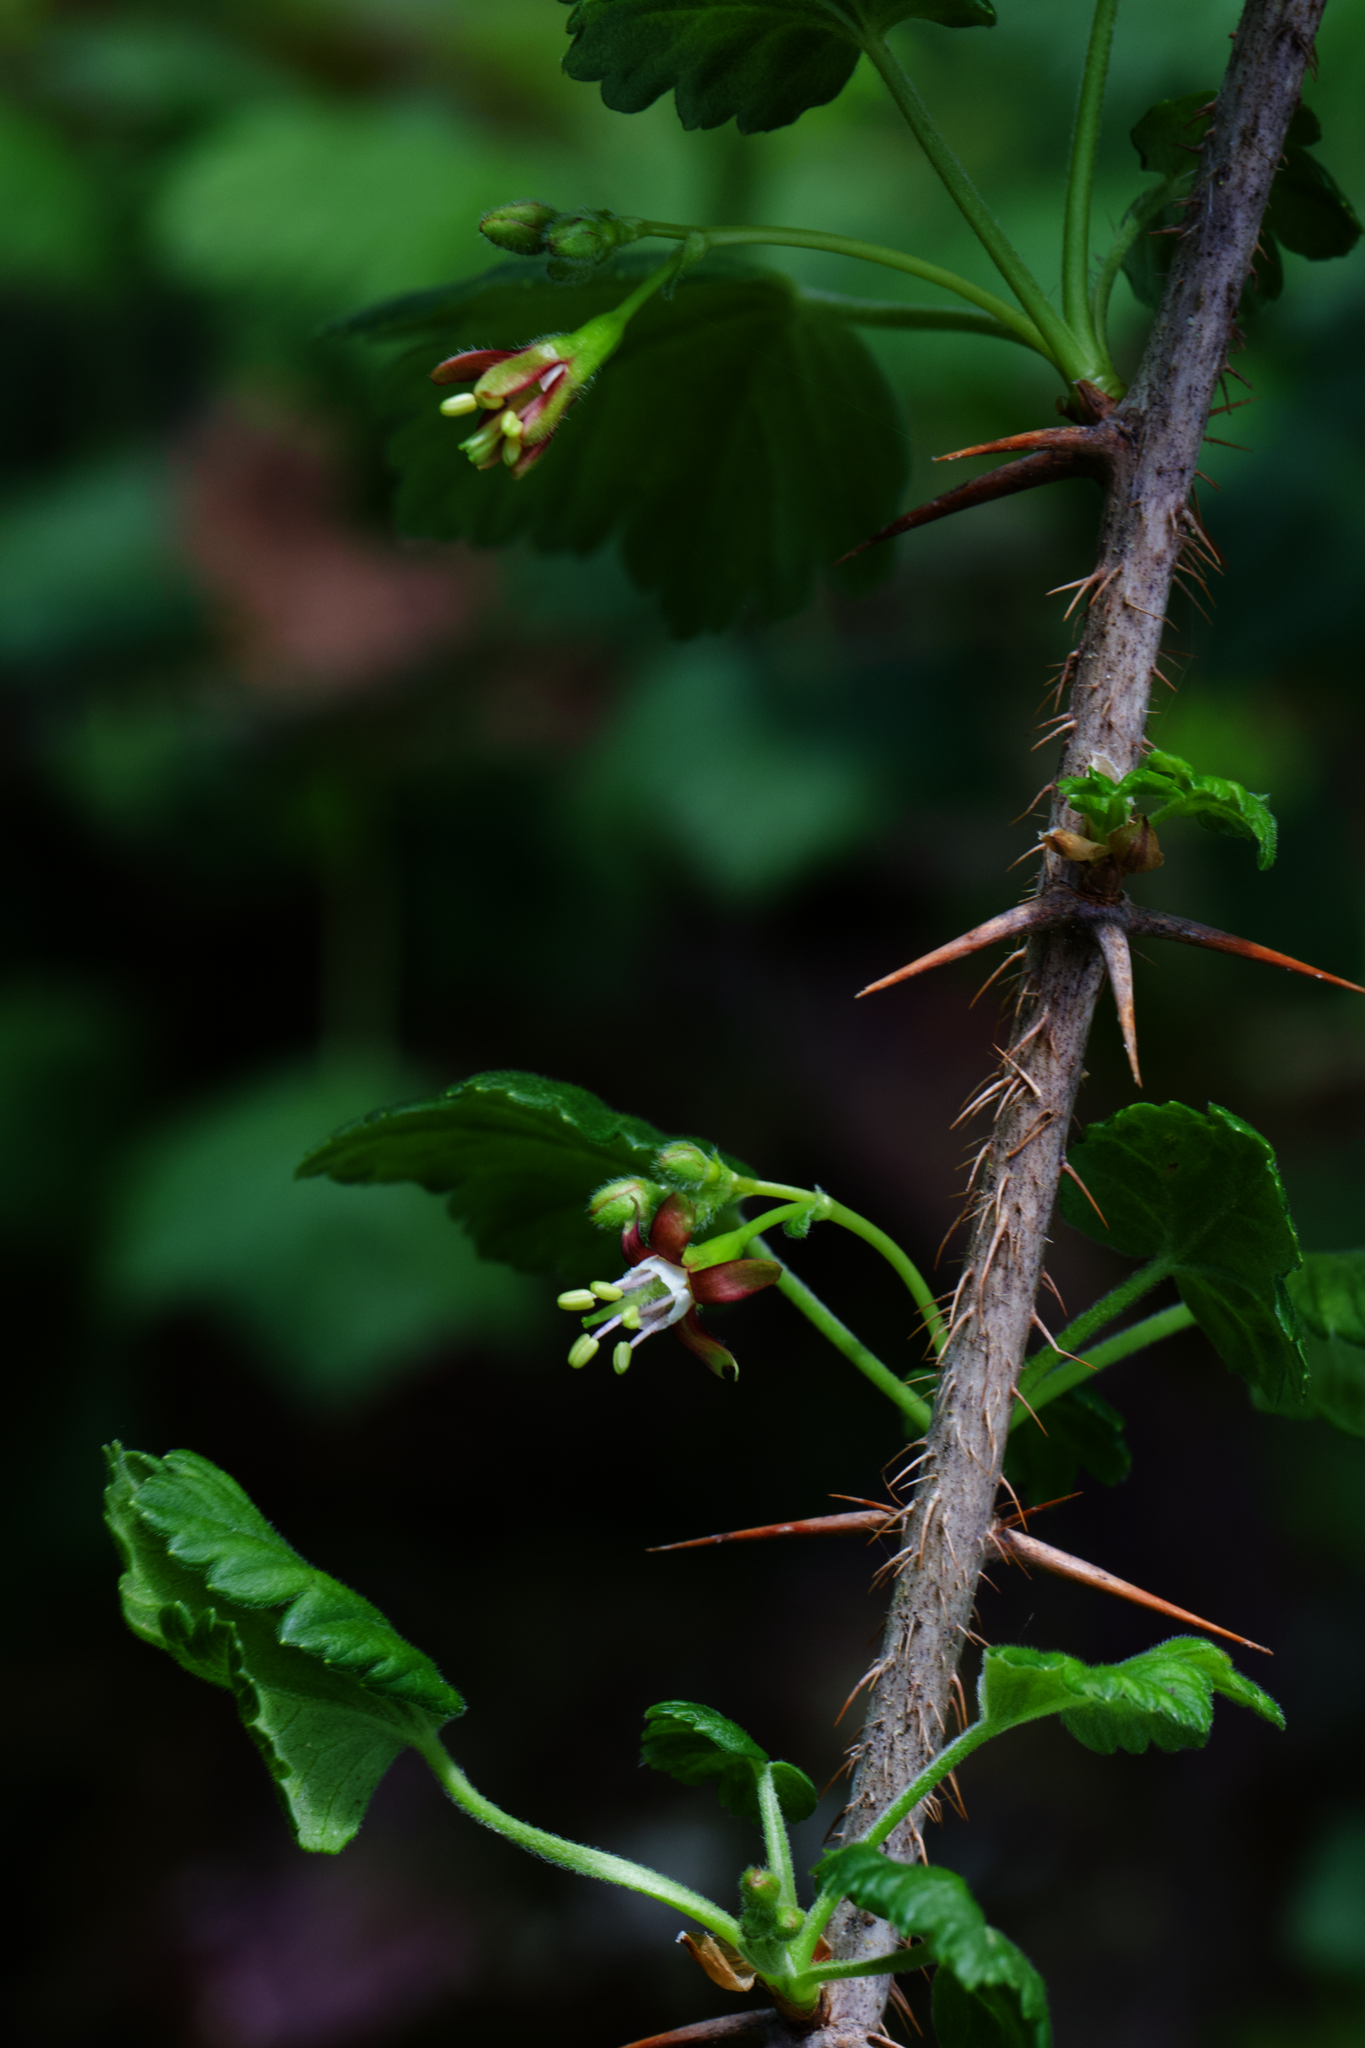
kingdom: Plantae
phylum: Tracheophyta
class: Magnoliopsida
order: Saxifragales
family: Grossulariaceae
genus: Ribes
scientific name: Ribes divaricatum
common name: Wild black gooseberry
